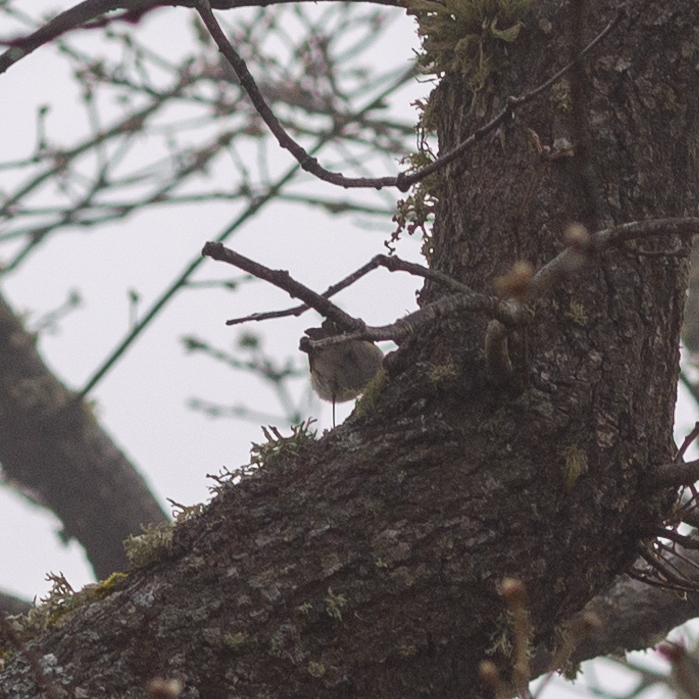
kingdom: Animalia
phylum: Chordata
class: Aves
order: Passeriformes
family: Phylloscopidae
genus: Phylloscopus
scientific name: Phylloscopus bonelli
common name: Western bonelli's warbler
